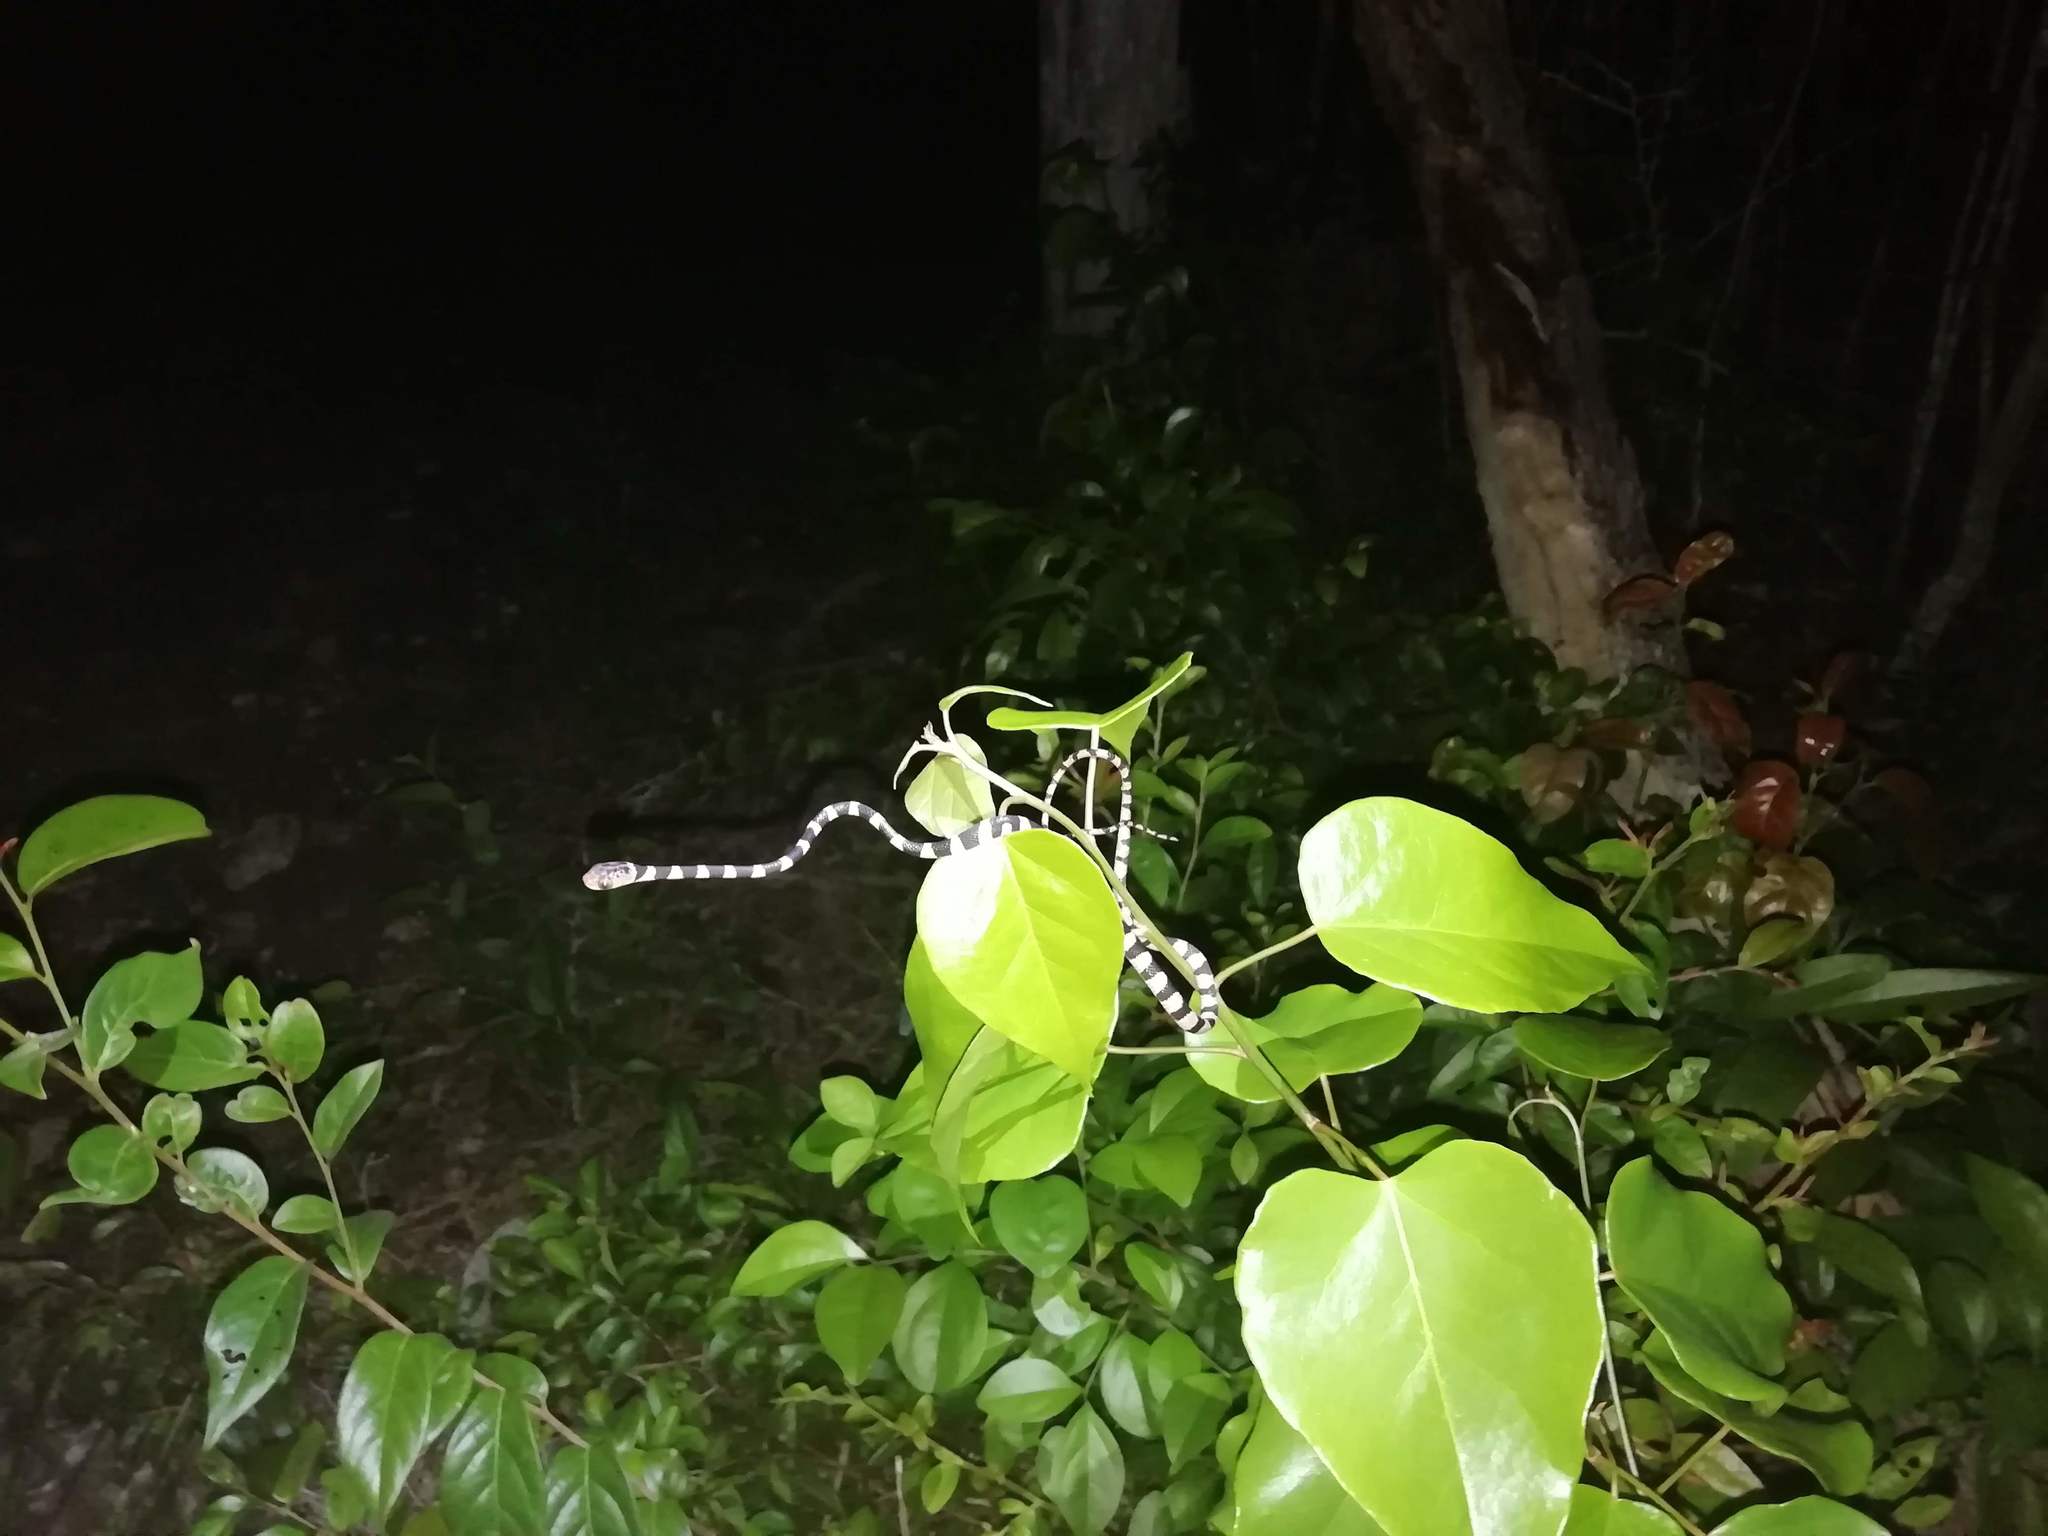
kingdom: Animalia
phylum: Chordata
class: Squamata
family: Colubridae
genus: Imantodes
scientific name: Imantodes tenuissimus
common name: Yucatán blunthead snake
